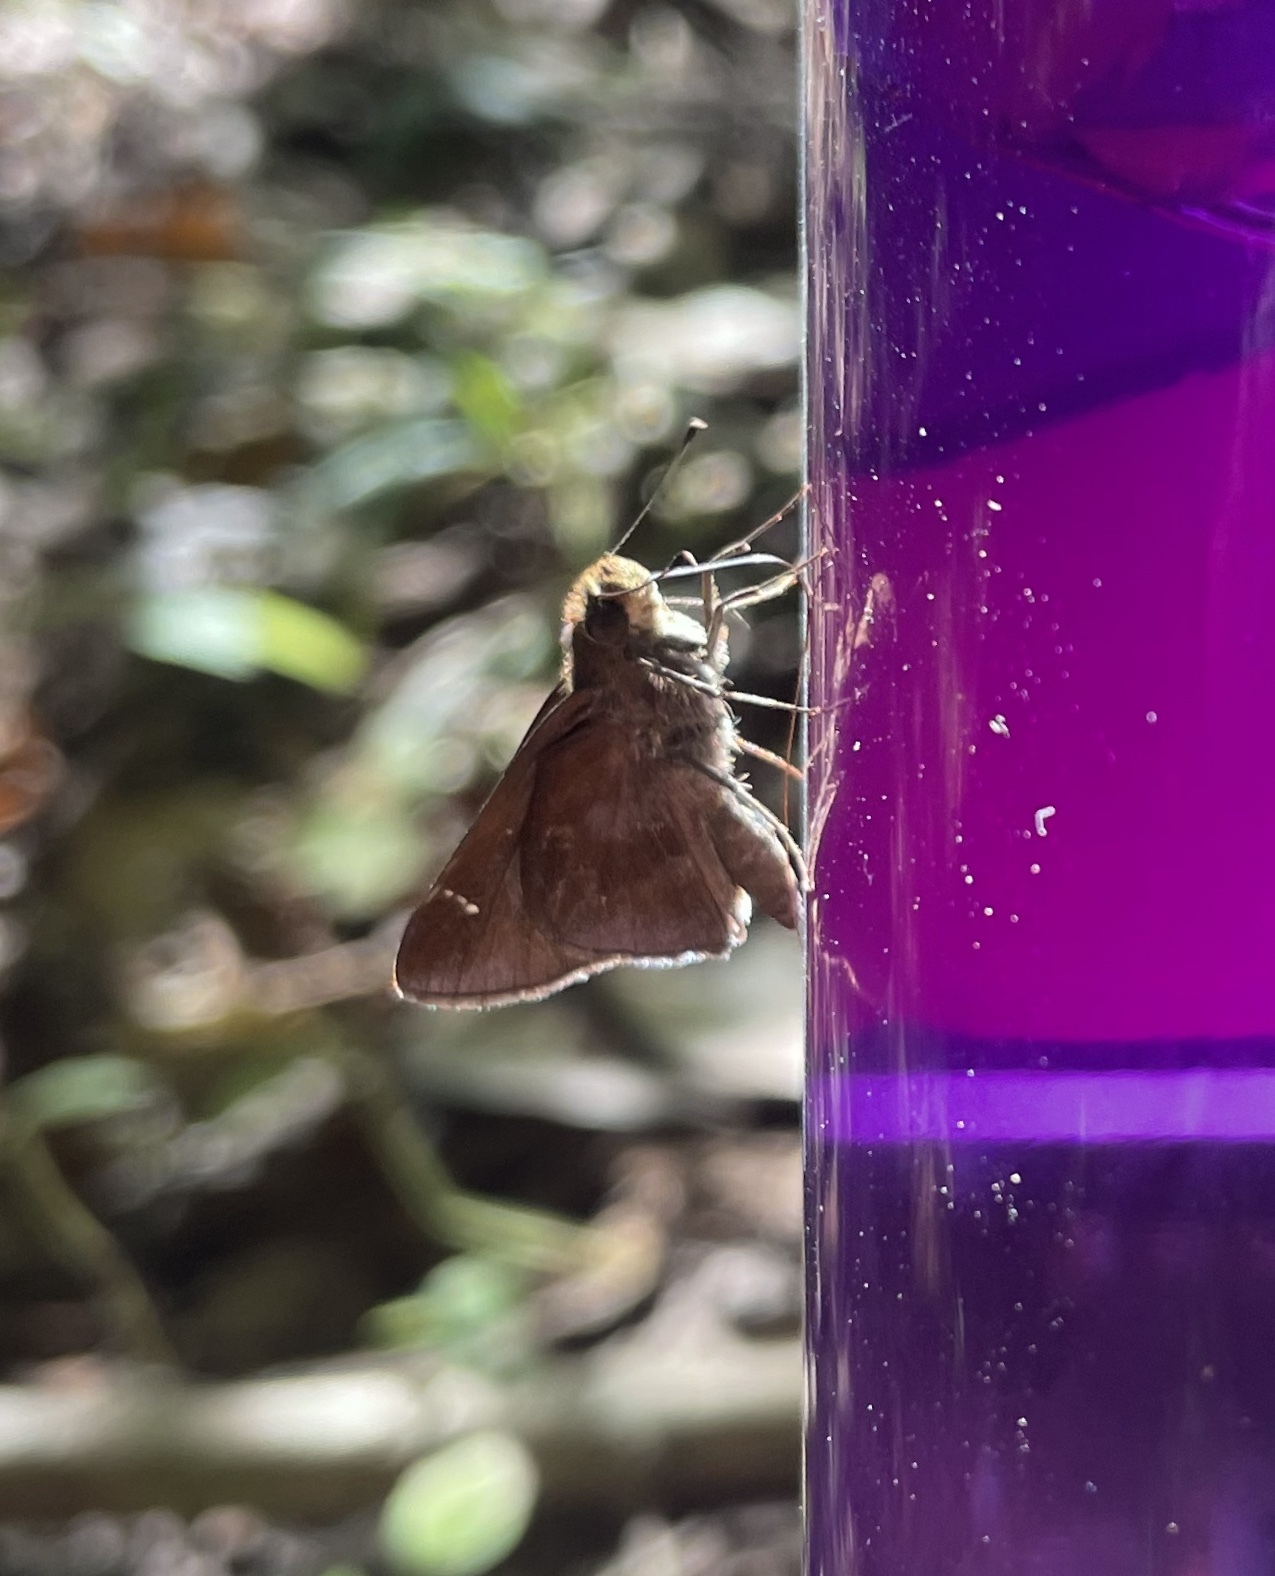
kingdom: Animalia
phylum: Arthropoda
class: Insecta
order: Lepidoptera
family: Hesperiidae
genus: Lerema
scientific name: Lerema accius
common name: Clouded skipper
